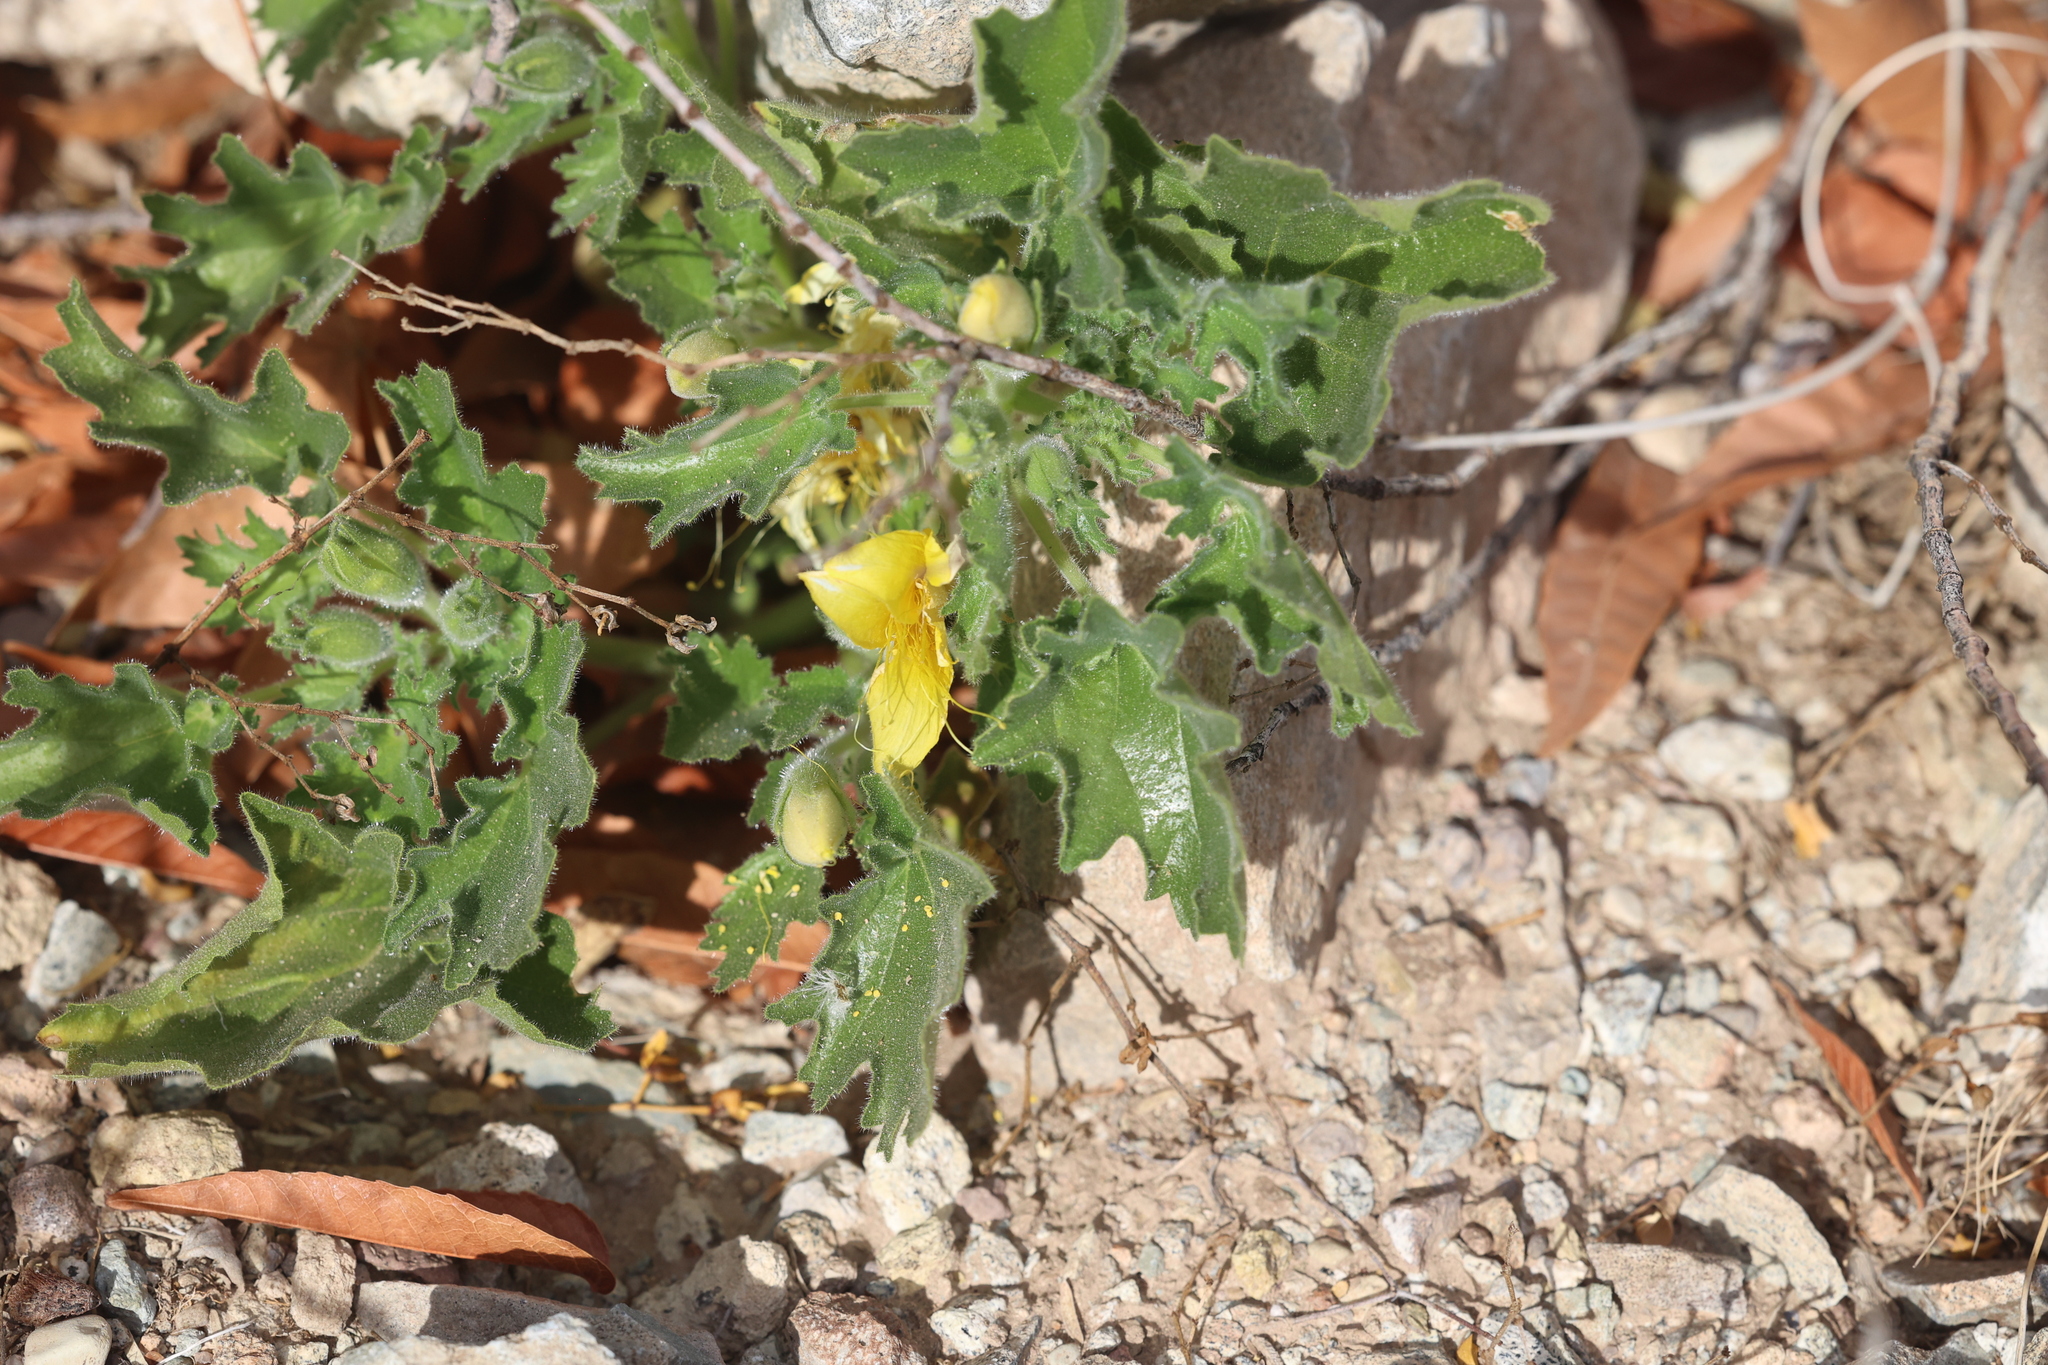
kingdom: Plantae
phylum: Tracheophyta
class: Magnoliopsida
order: Cornales
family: Loasaceae
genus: Eucnide
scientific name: Eucnide bartonioides
